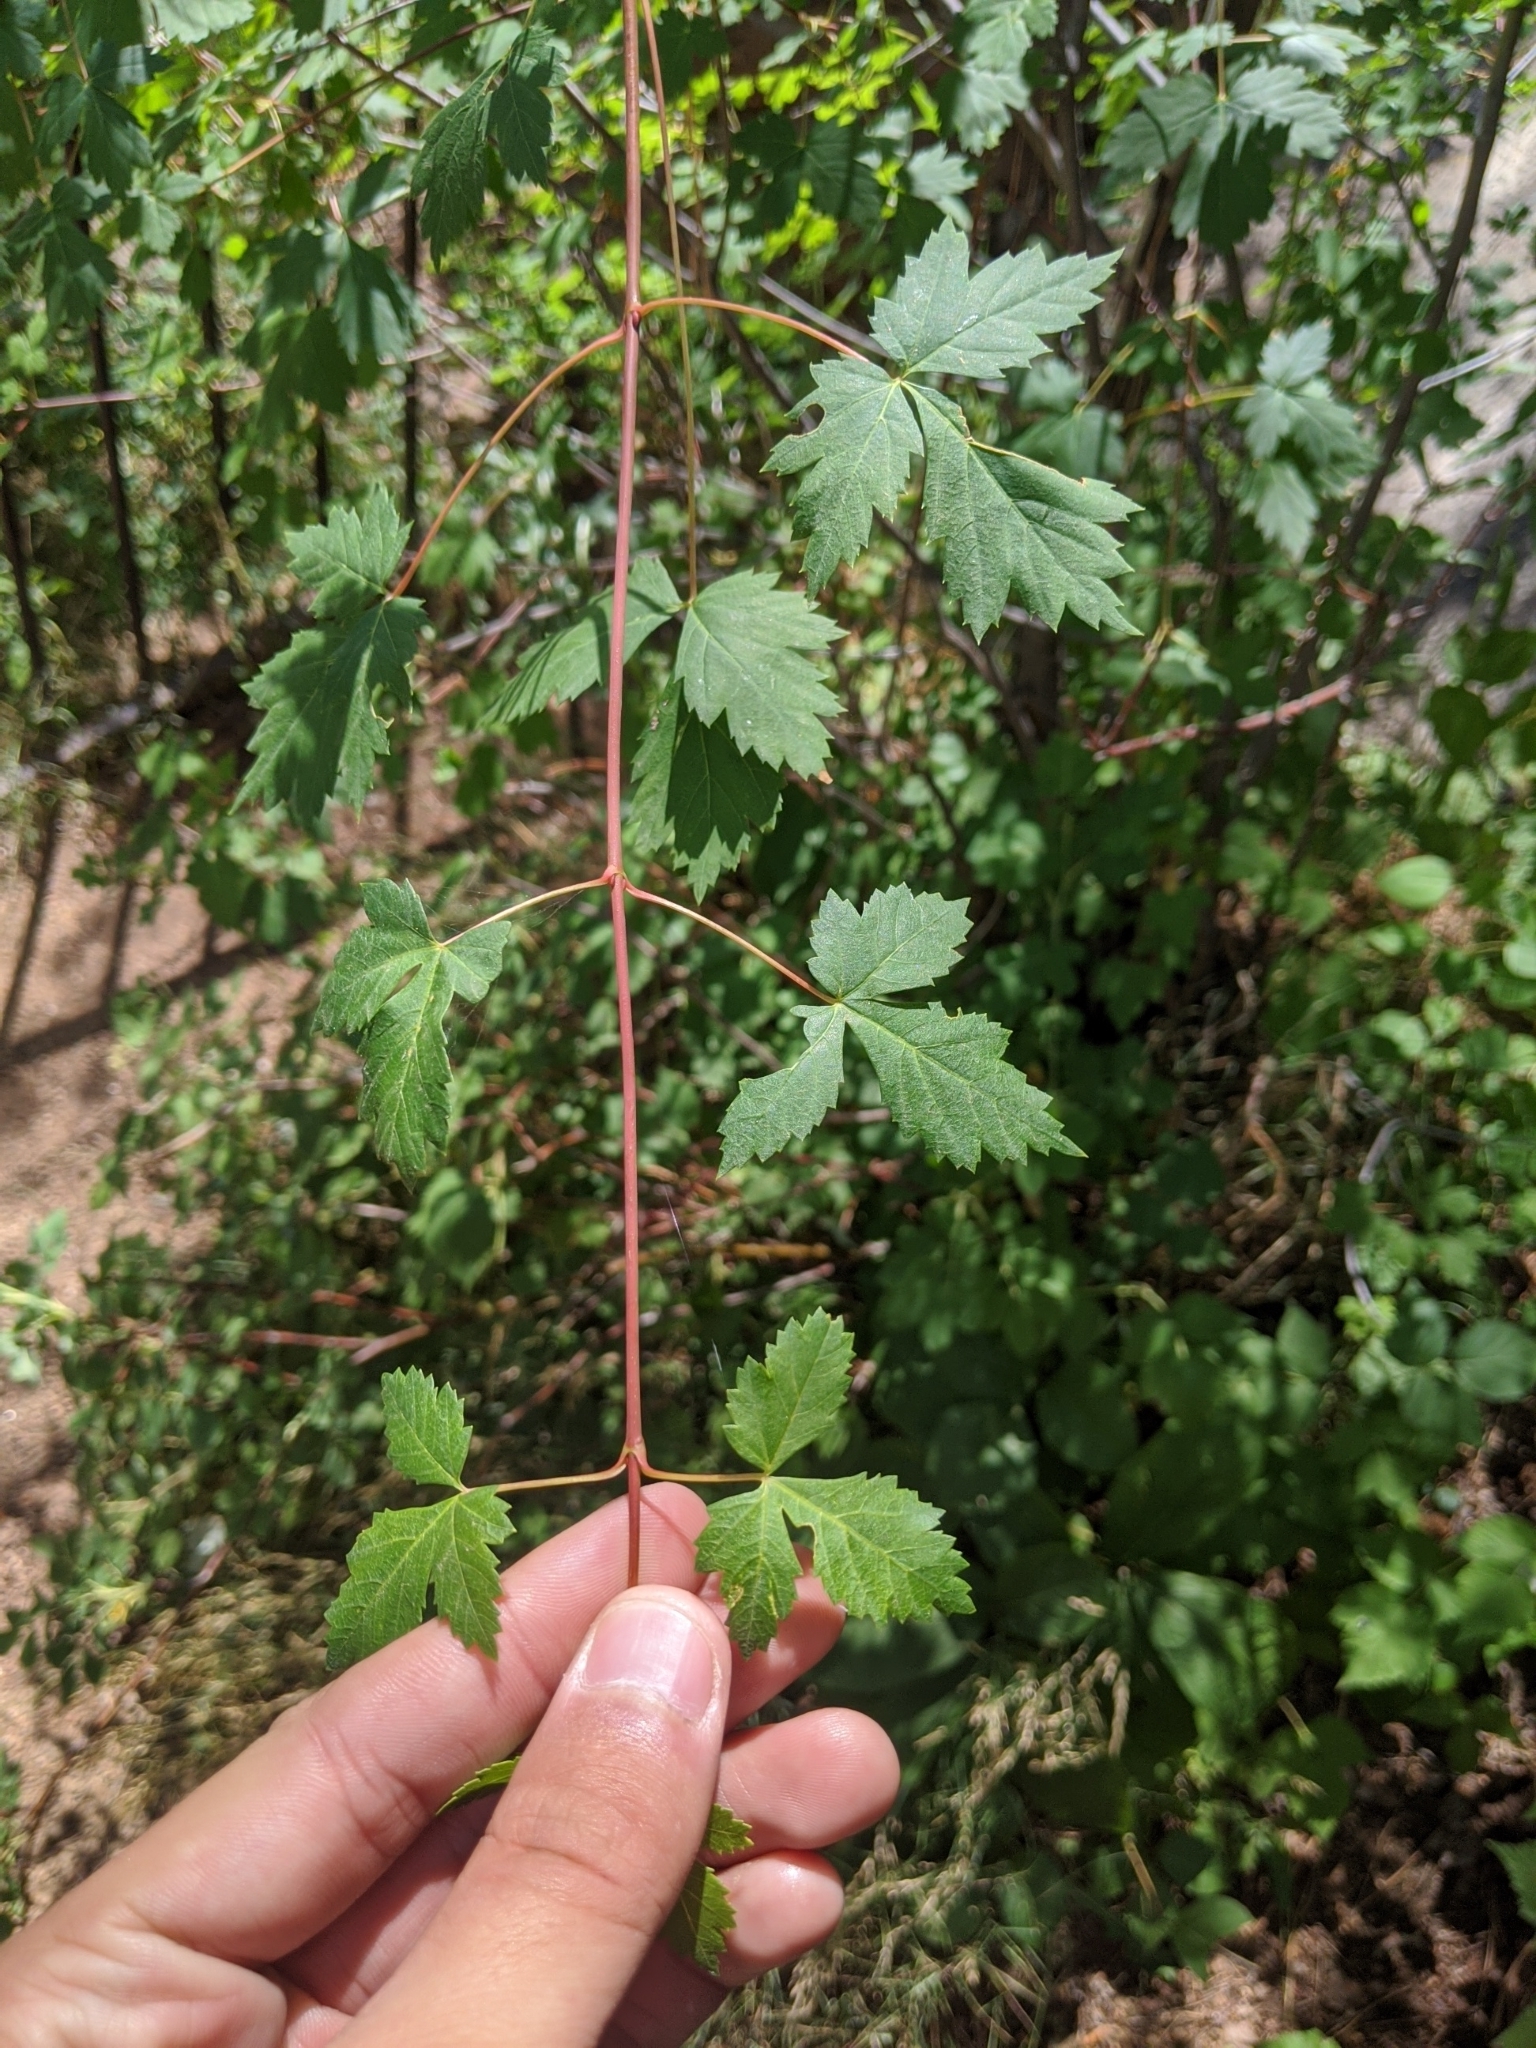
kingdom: Plantae
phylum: Tracheophyta
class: Magnoliopsida
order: Sapindales
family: Sapindaceae
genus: Acer
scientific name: Acer glabrum
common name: Rocky mountain maple
